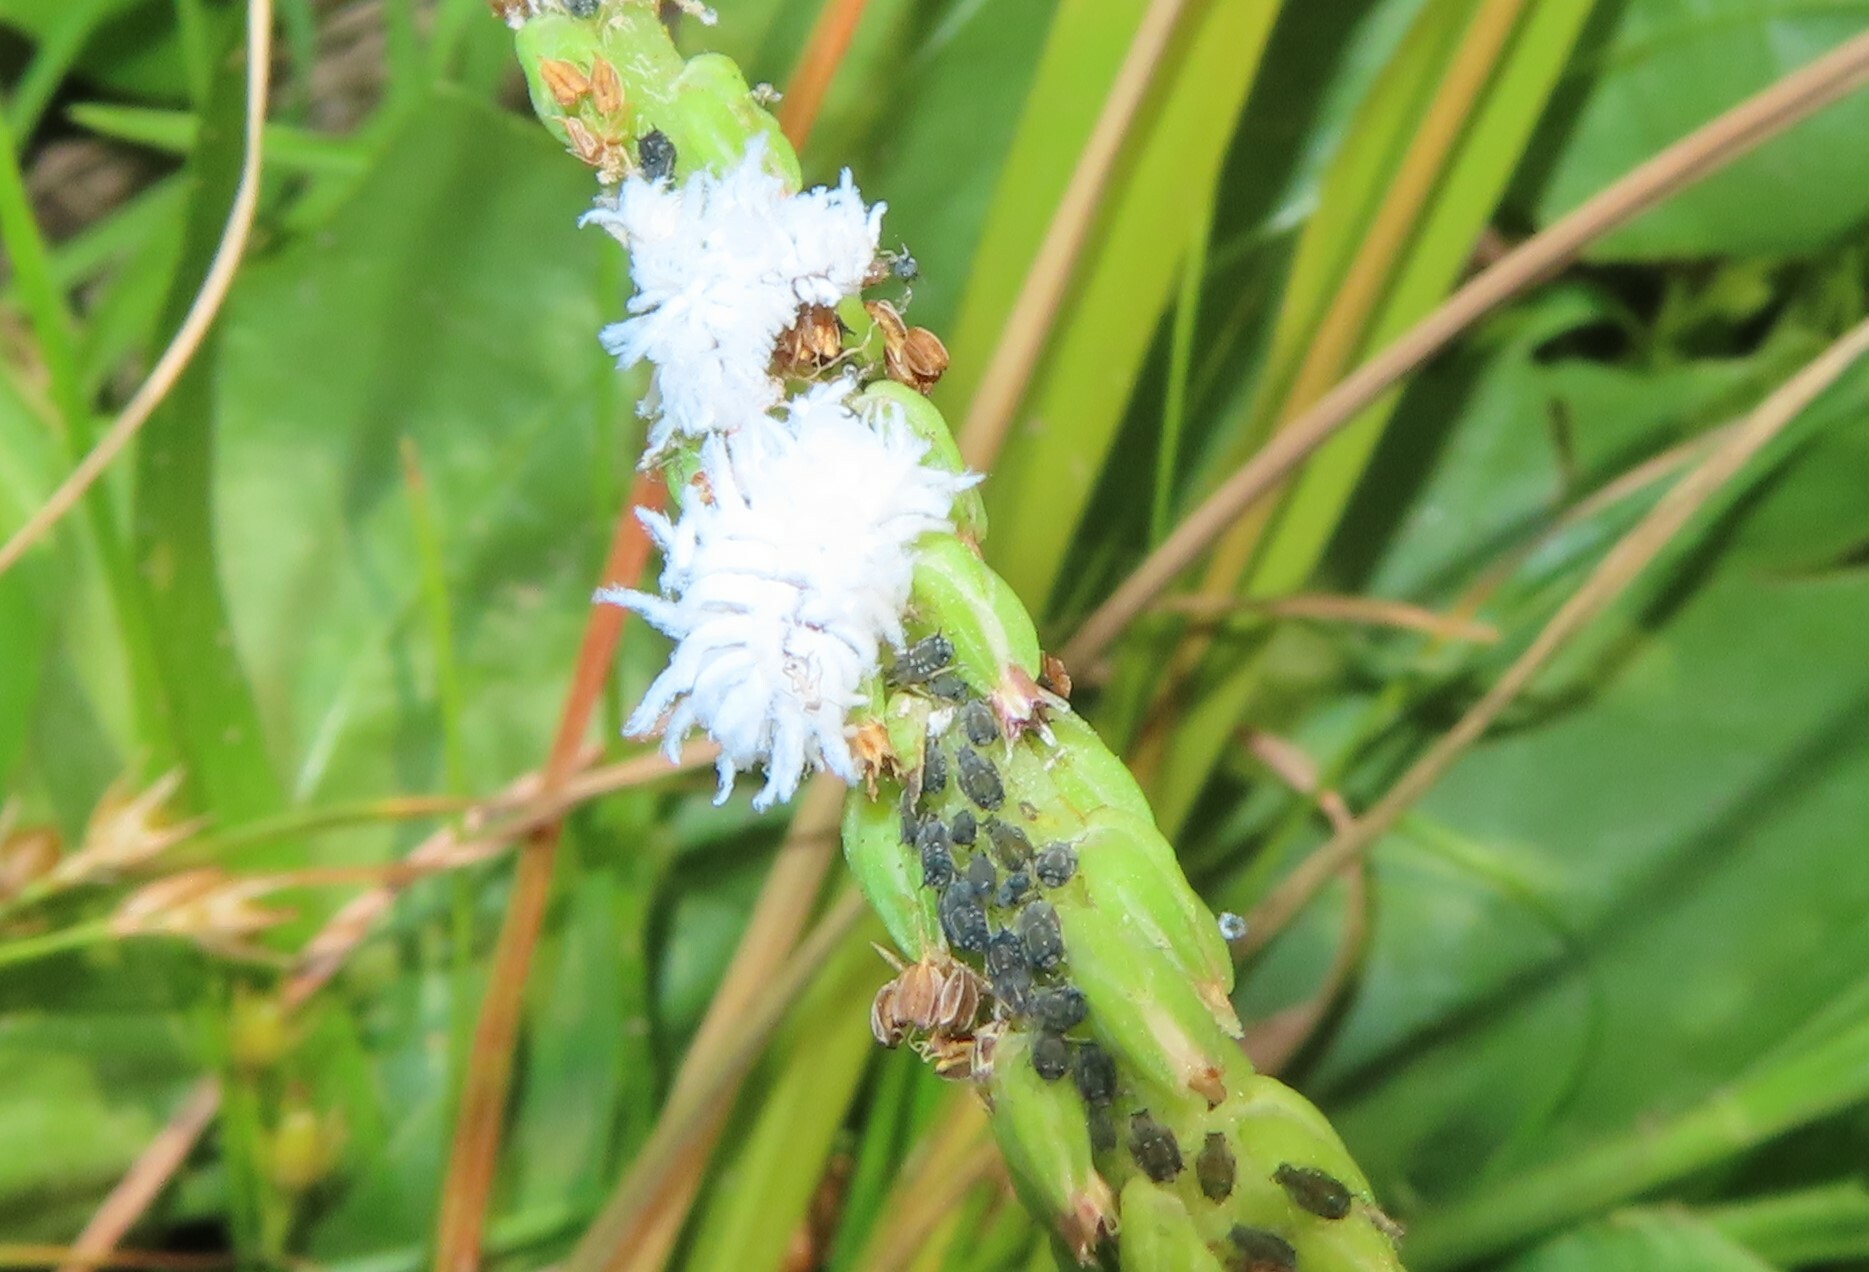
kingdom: Animalia
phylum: Arthropoda
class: Insecta
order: Coleoptera
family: Coccinellidae
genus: Cryptolaemus
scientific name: Cryptolaemus montrouzieri
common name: Mealybug destroyer
